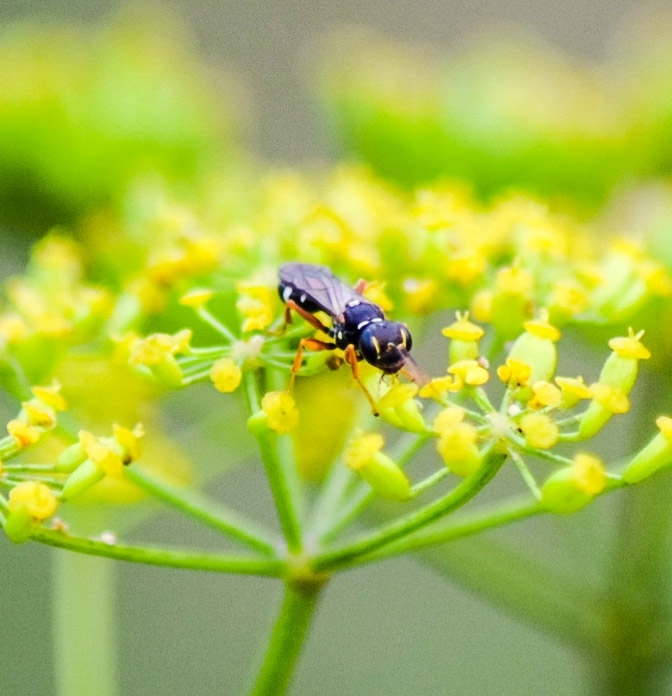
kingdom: Animalia
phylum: Arthropoda
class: Insecta
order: Hymenoptera
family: Crabronidae
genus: Mellinus
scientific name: Mellinus crabroneus
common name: Sand digger wasp
